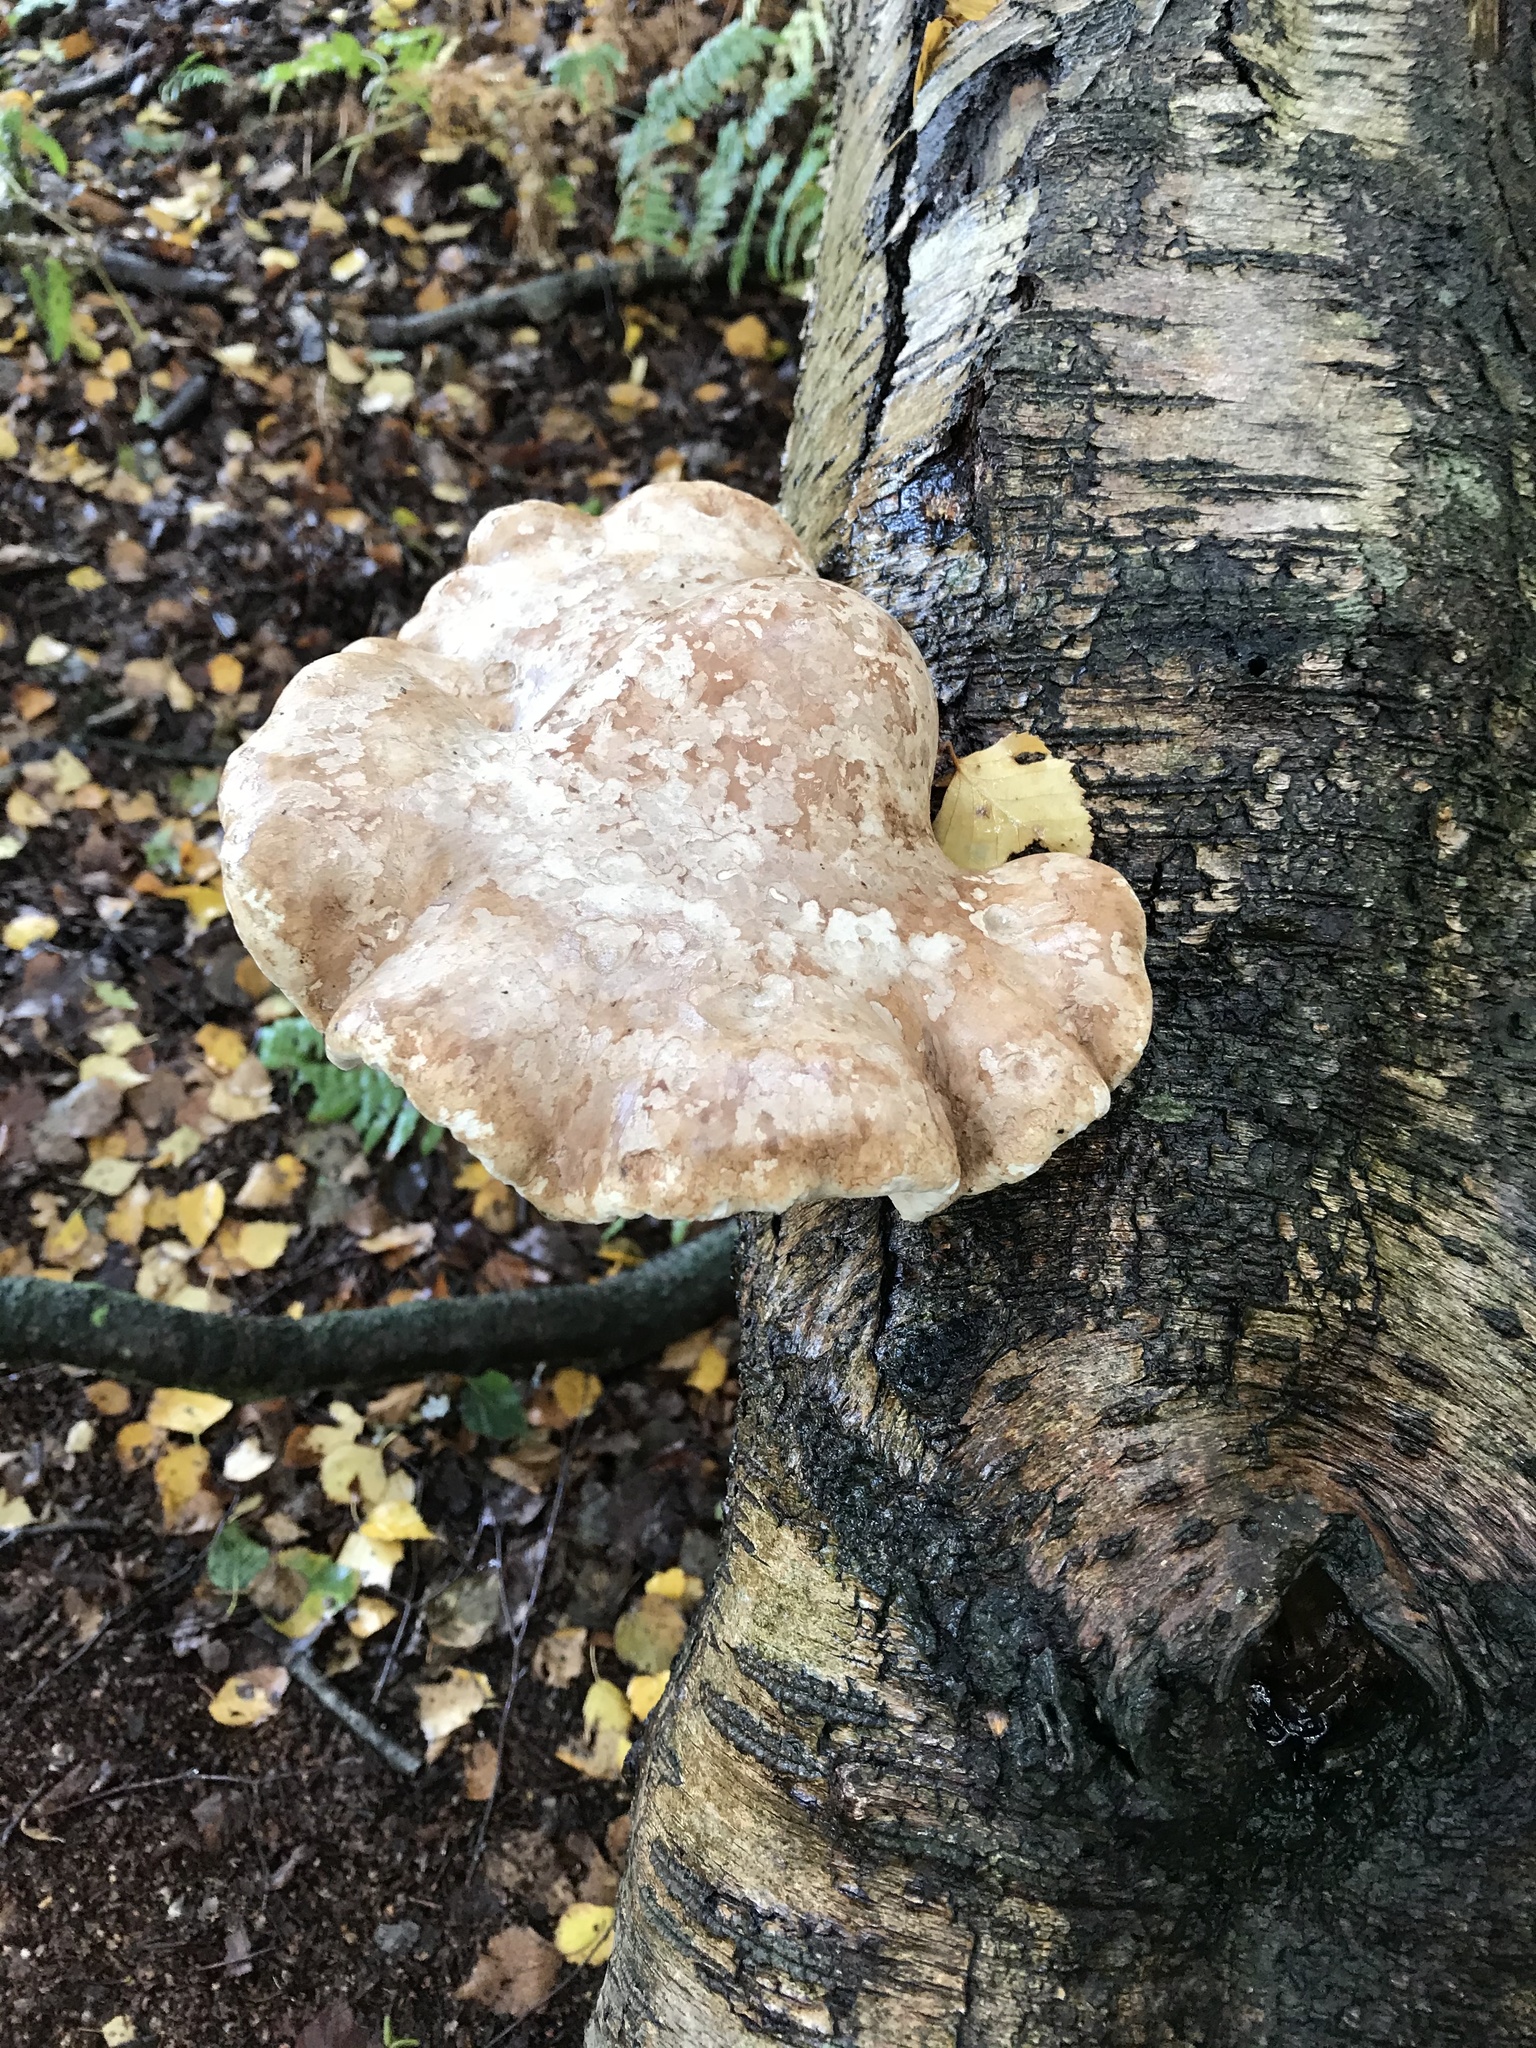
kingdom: Fungi
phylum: Basidiomycota
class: Agaricomycetes
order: Polyporales
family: Fomitopsidaceae
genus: Fomitopsis
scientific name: Fomitopsis betulina
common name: Birch polypore
